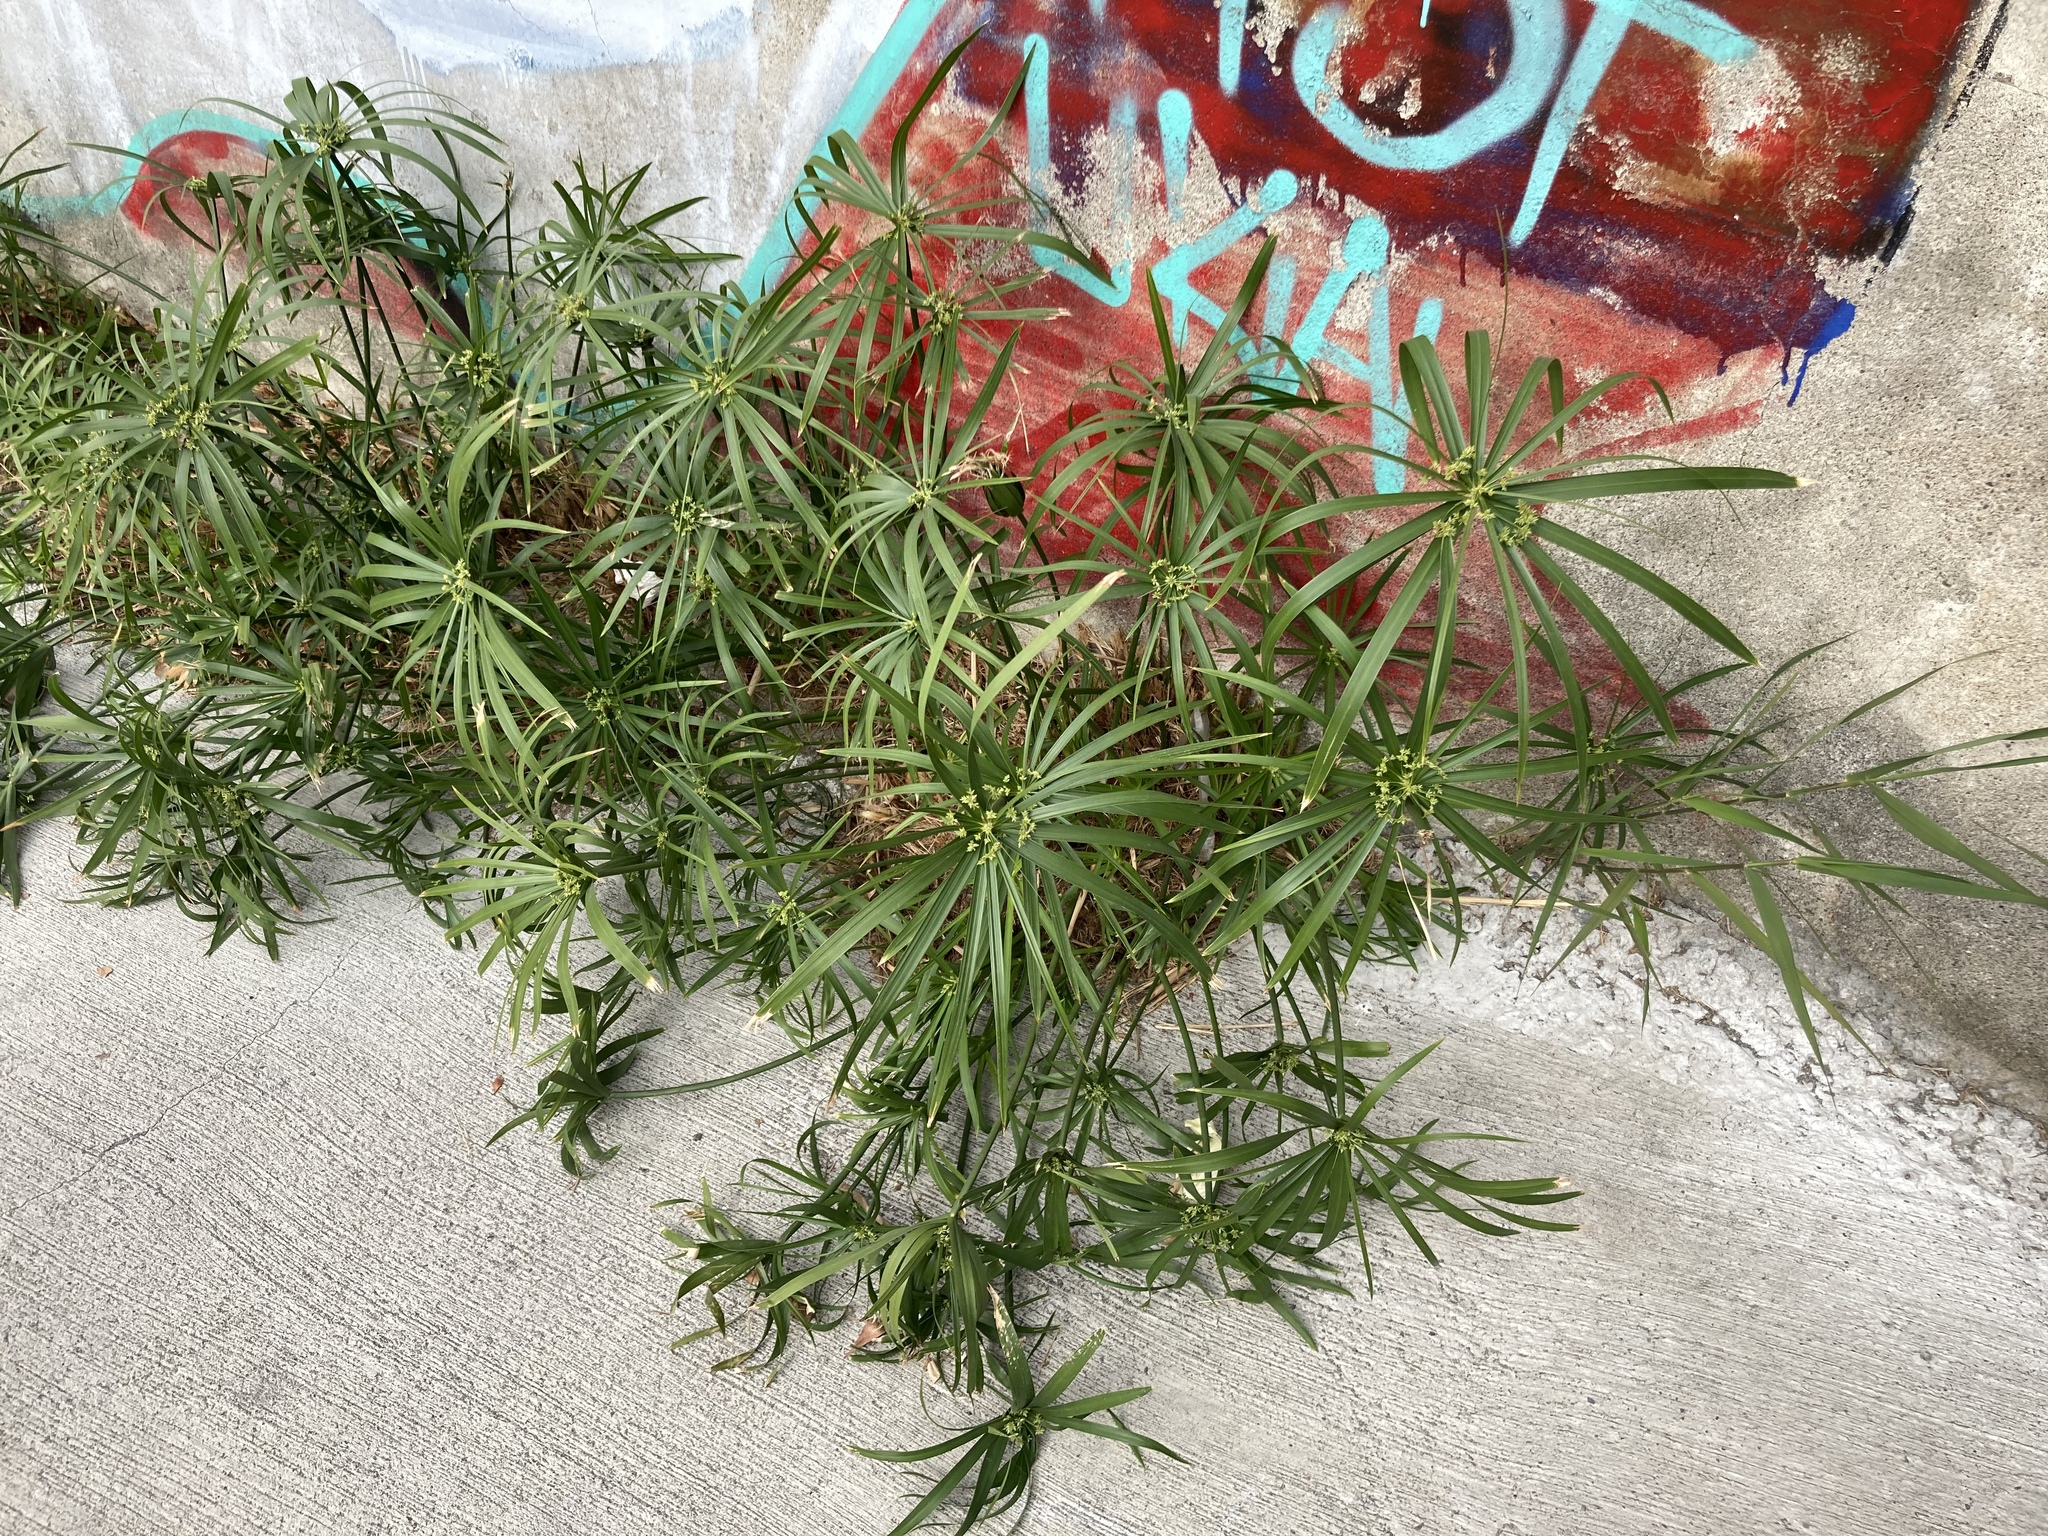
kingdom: Plantae
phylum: Tracheophyta
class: Liliopsida
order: Poales
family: Cyperaceae
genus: Cyperus
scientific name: Cyperus alternifolius
